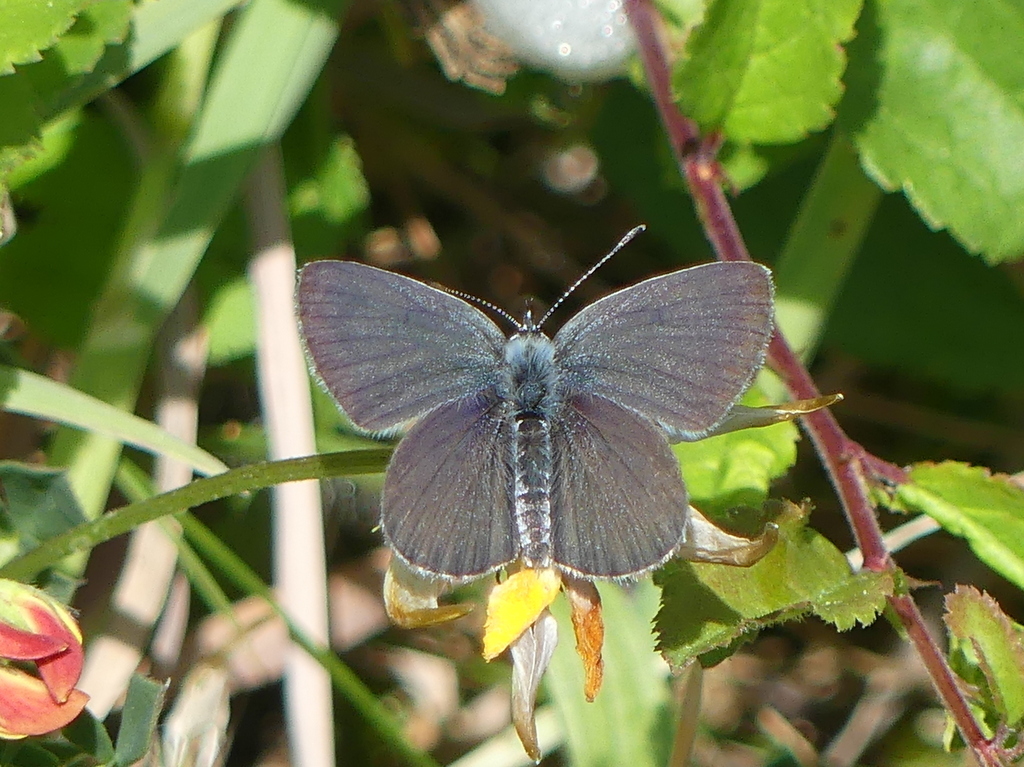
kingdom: Animalia
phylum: Arthropoda
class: Insecta
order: Lepidoptera
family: Lycaenidae
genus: Cupido
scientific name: Cupido minimus
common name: Small blue
